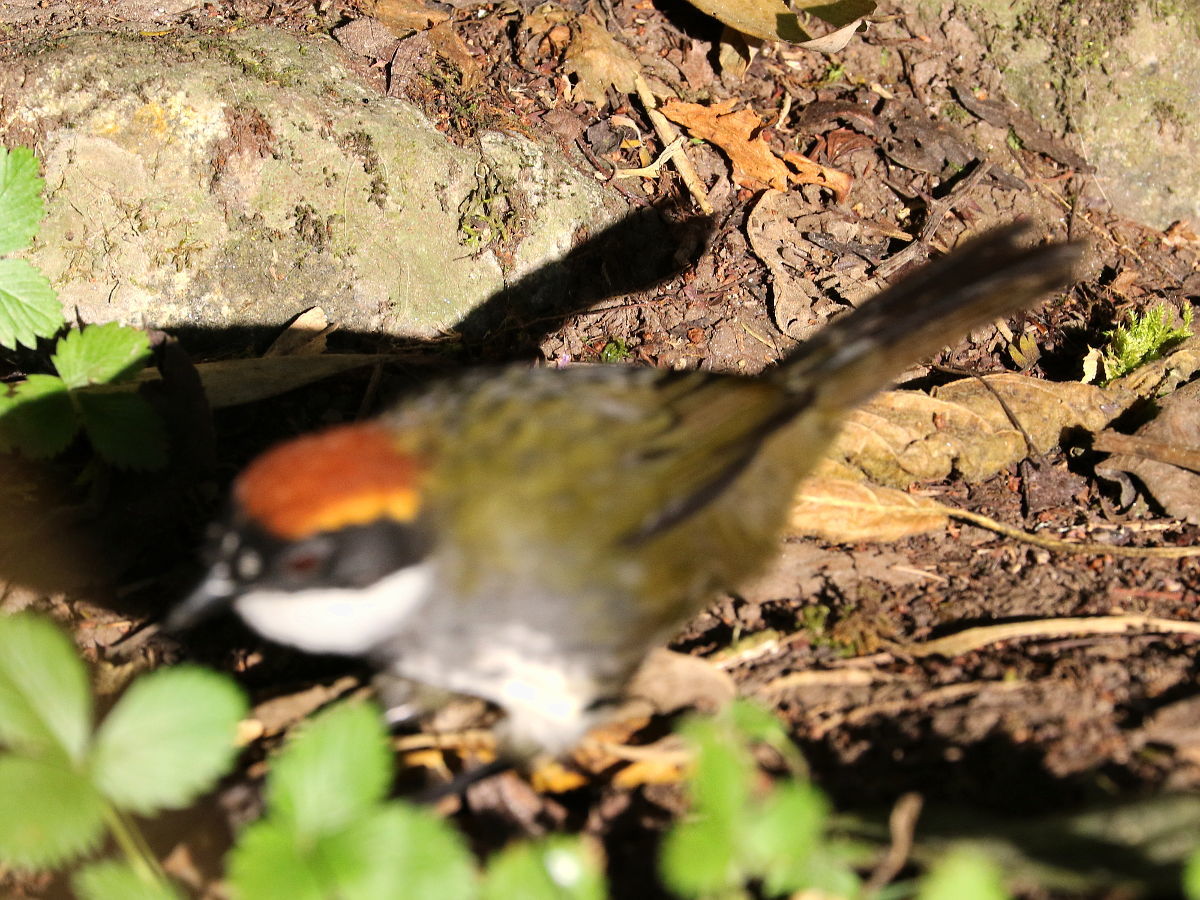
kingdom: Animalia
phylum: Chordata
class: Aves
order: Passeriformes
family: Passerellidae
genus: Arremon
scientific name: Arremon brunneinucha
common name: Chestnut-capped brushfinch
